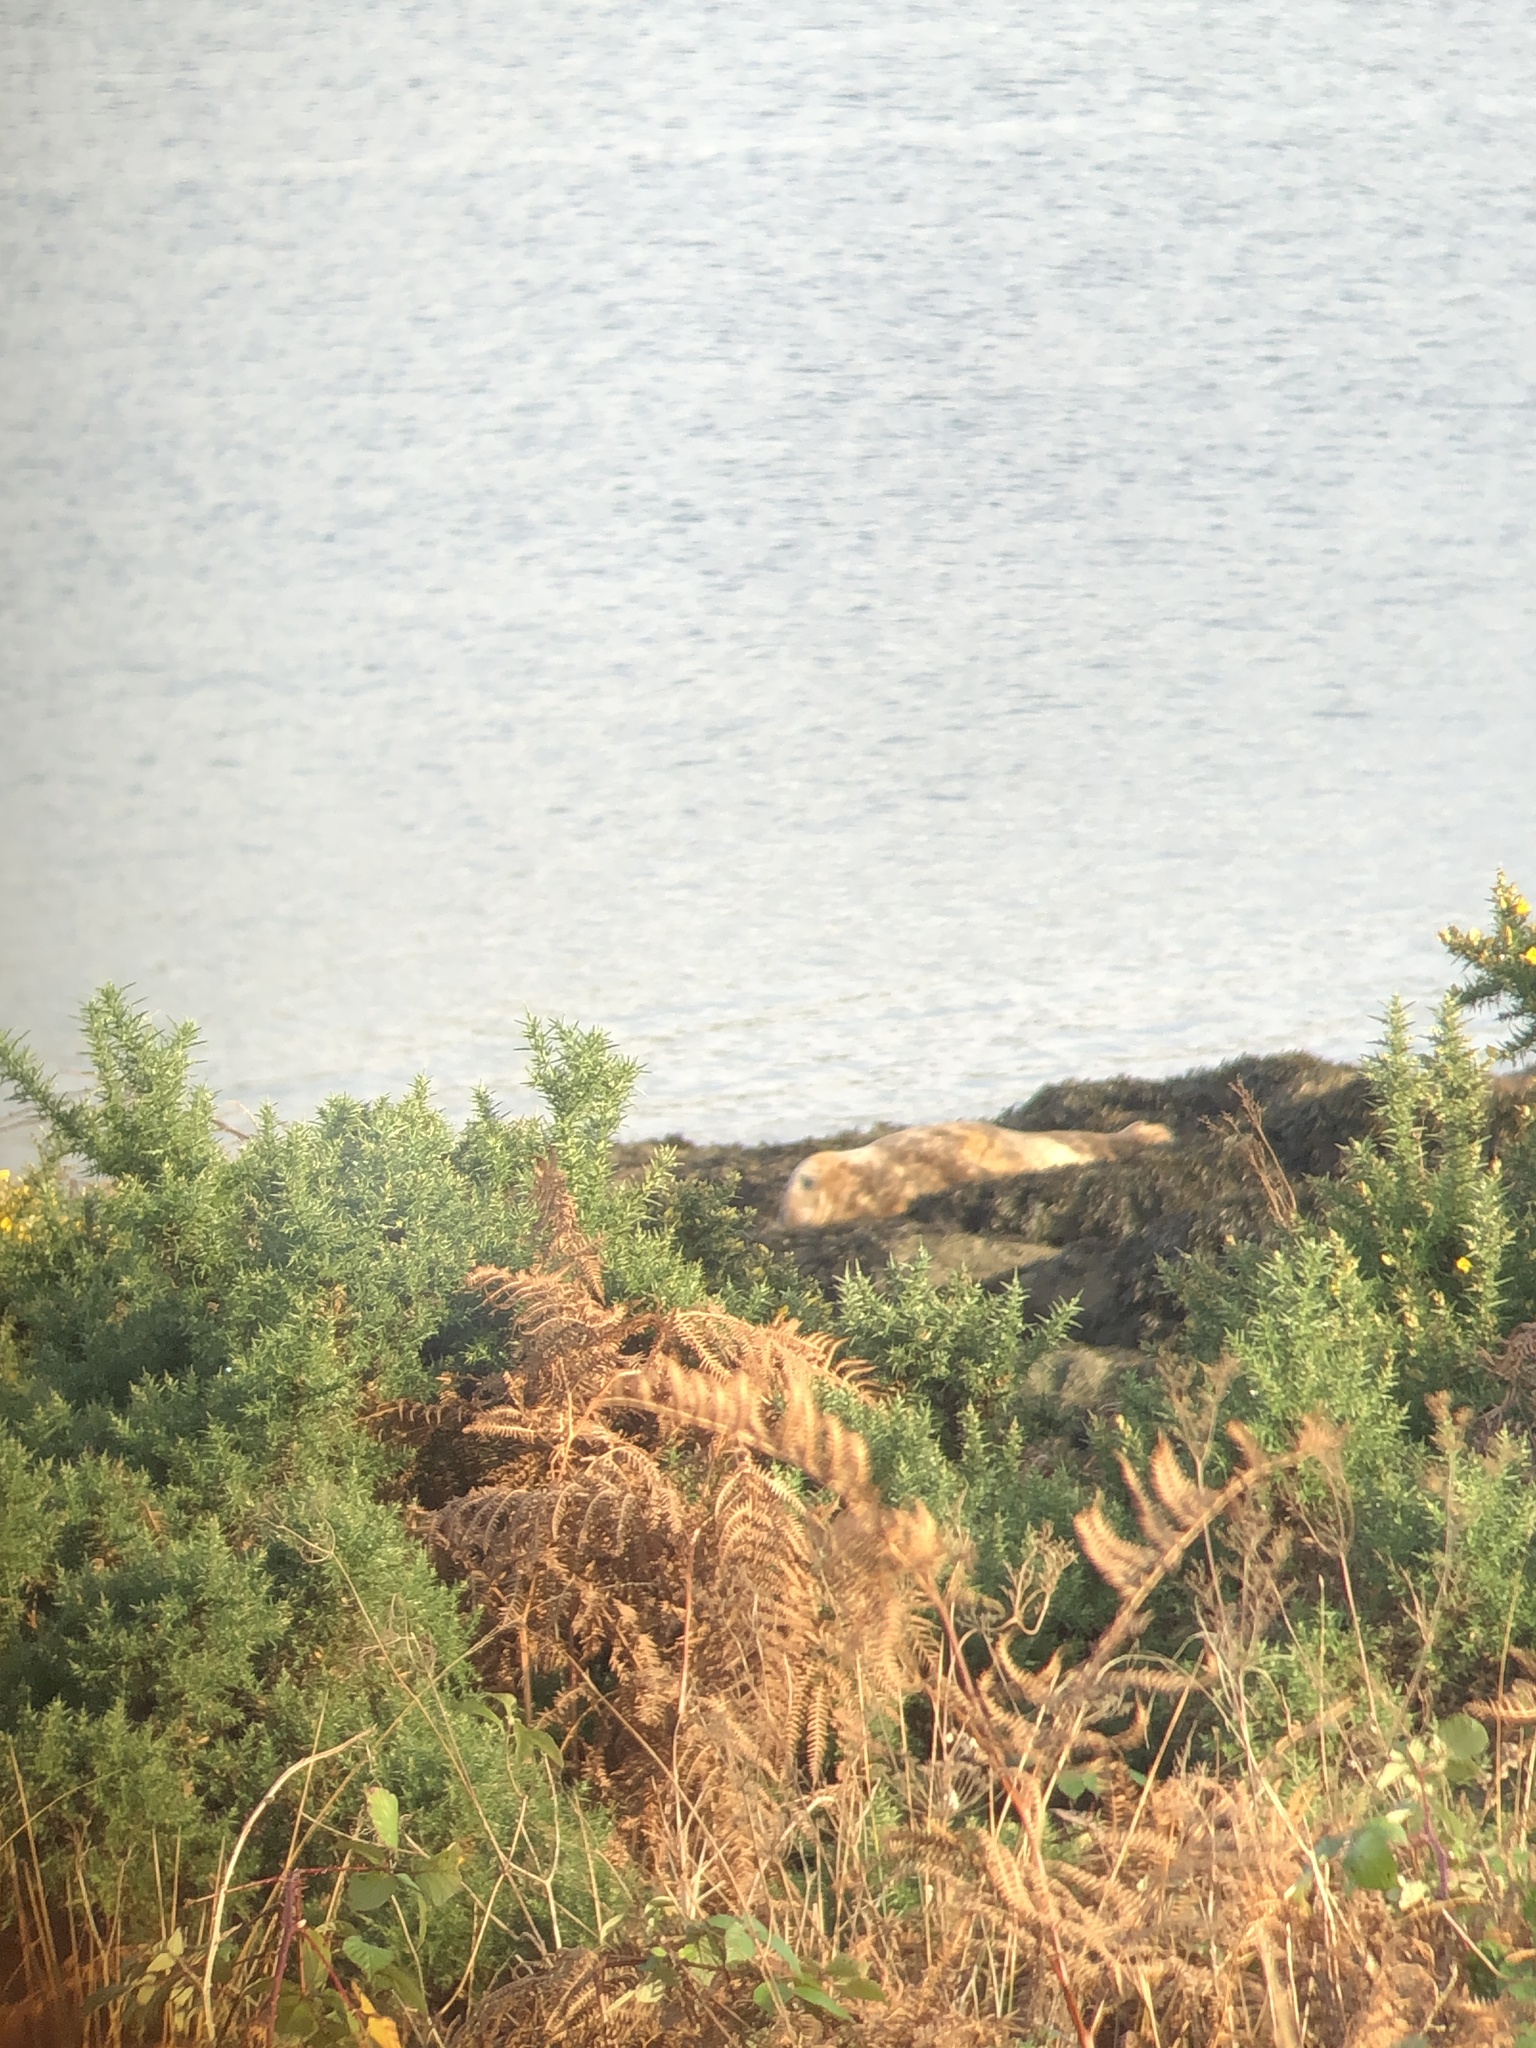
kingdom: Animalia
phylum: Chordata
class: Mammalia
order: Carnivora
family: Phocidae
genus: Halichoerus
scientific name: Halichoerus grypus
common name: Grey seal
